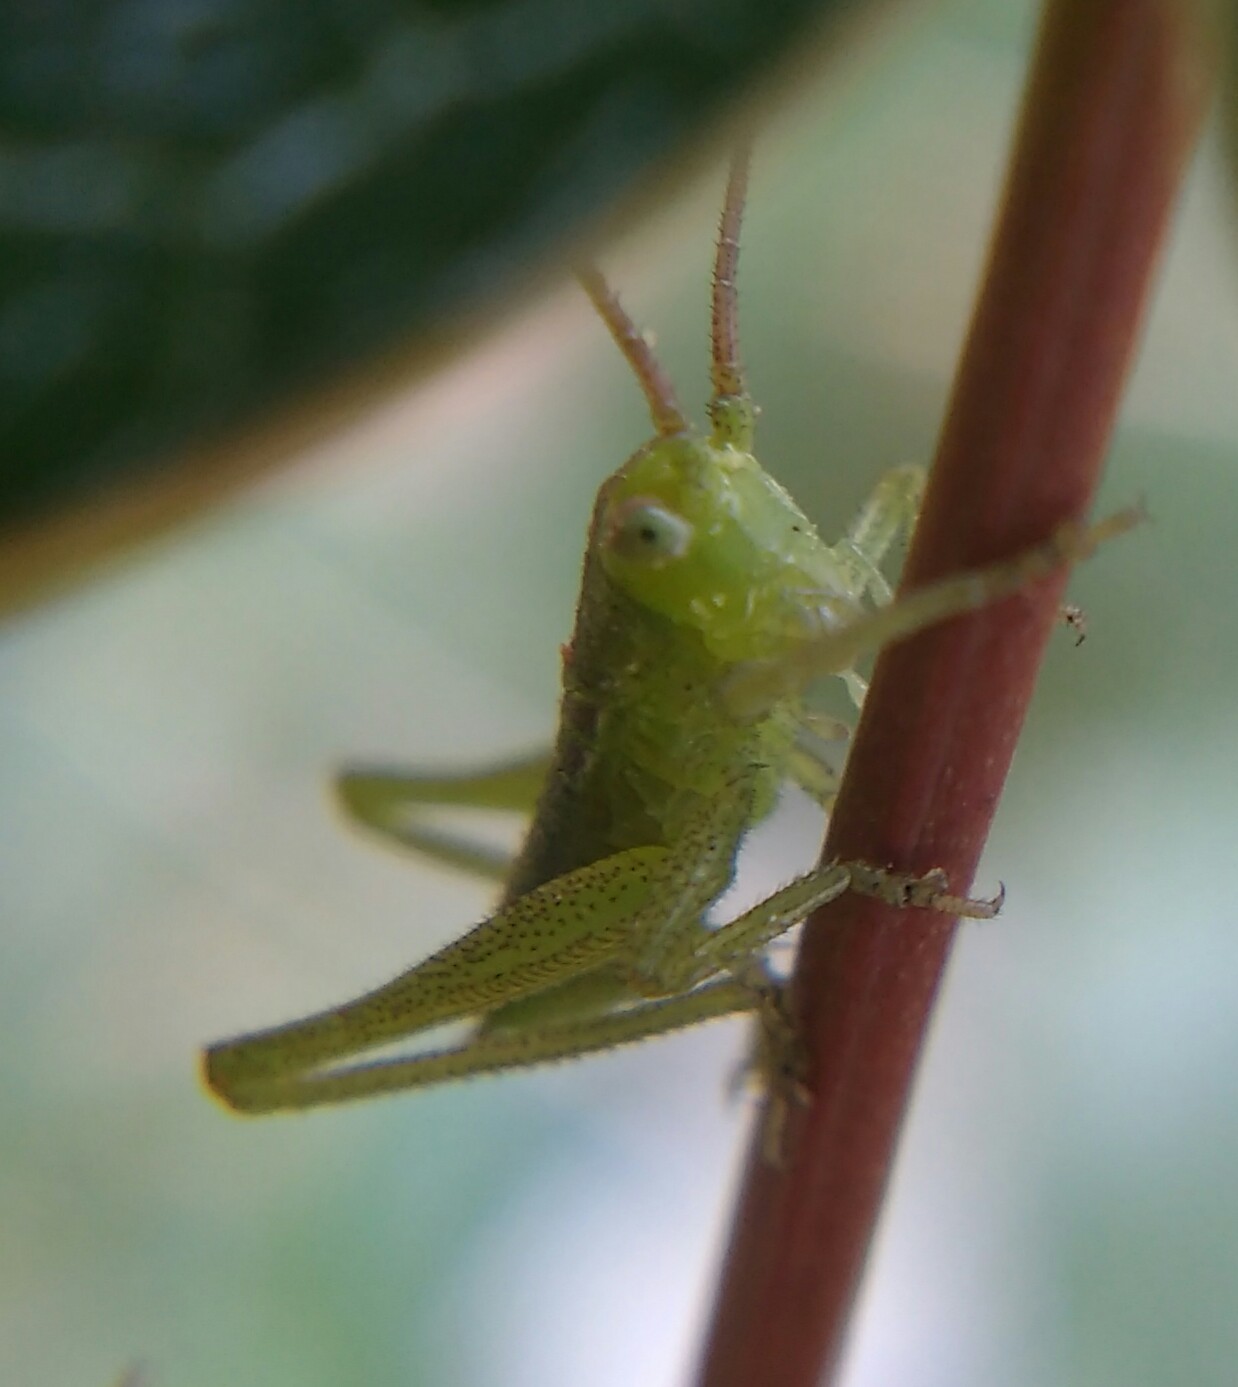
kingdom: Animalia
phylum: Arthropoda
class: Insecta
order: Orthoptera
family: Tettigoniidae
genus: Tettigonia
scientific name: Tettigonia viridissima
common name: Great green bush-cricket
